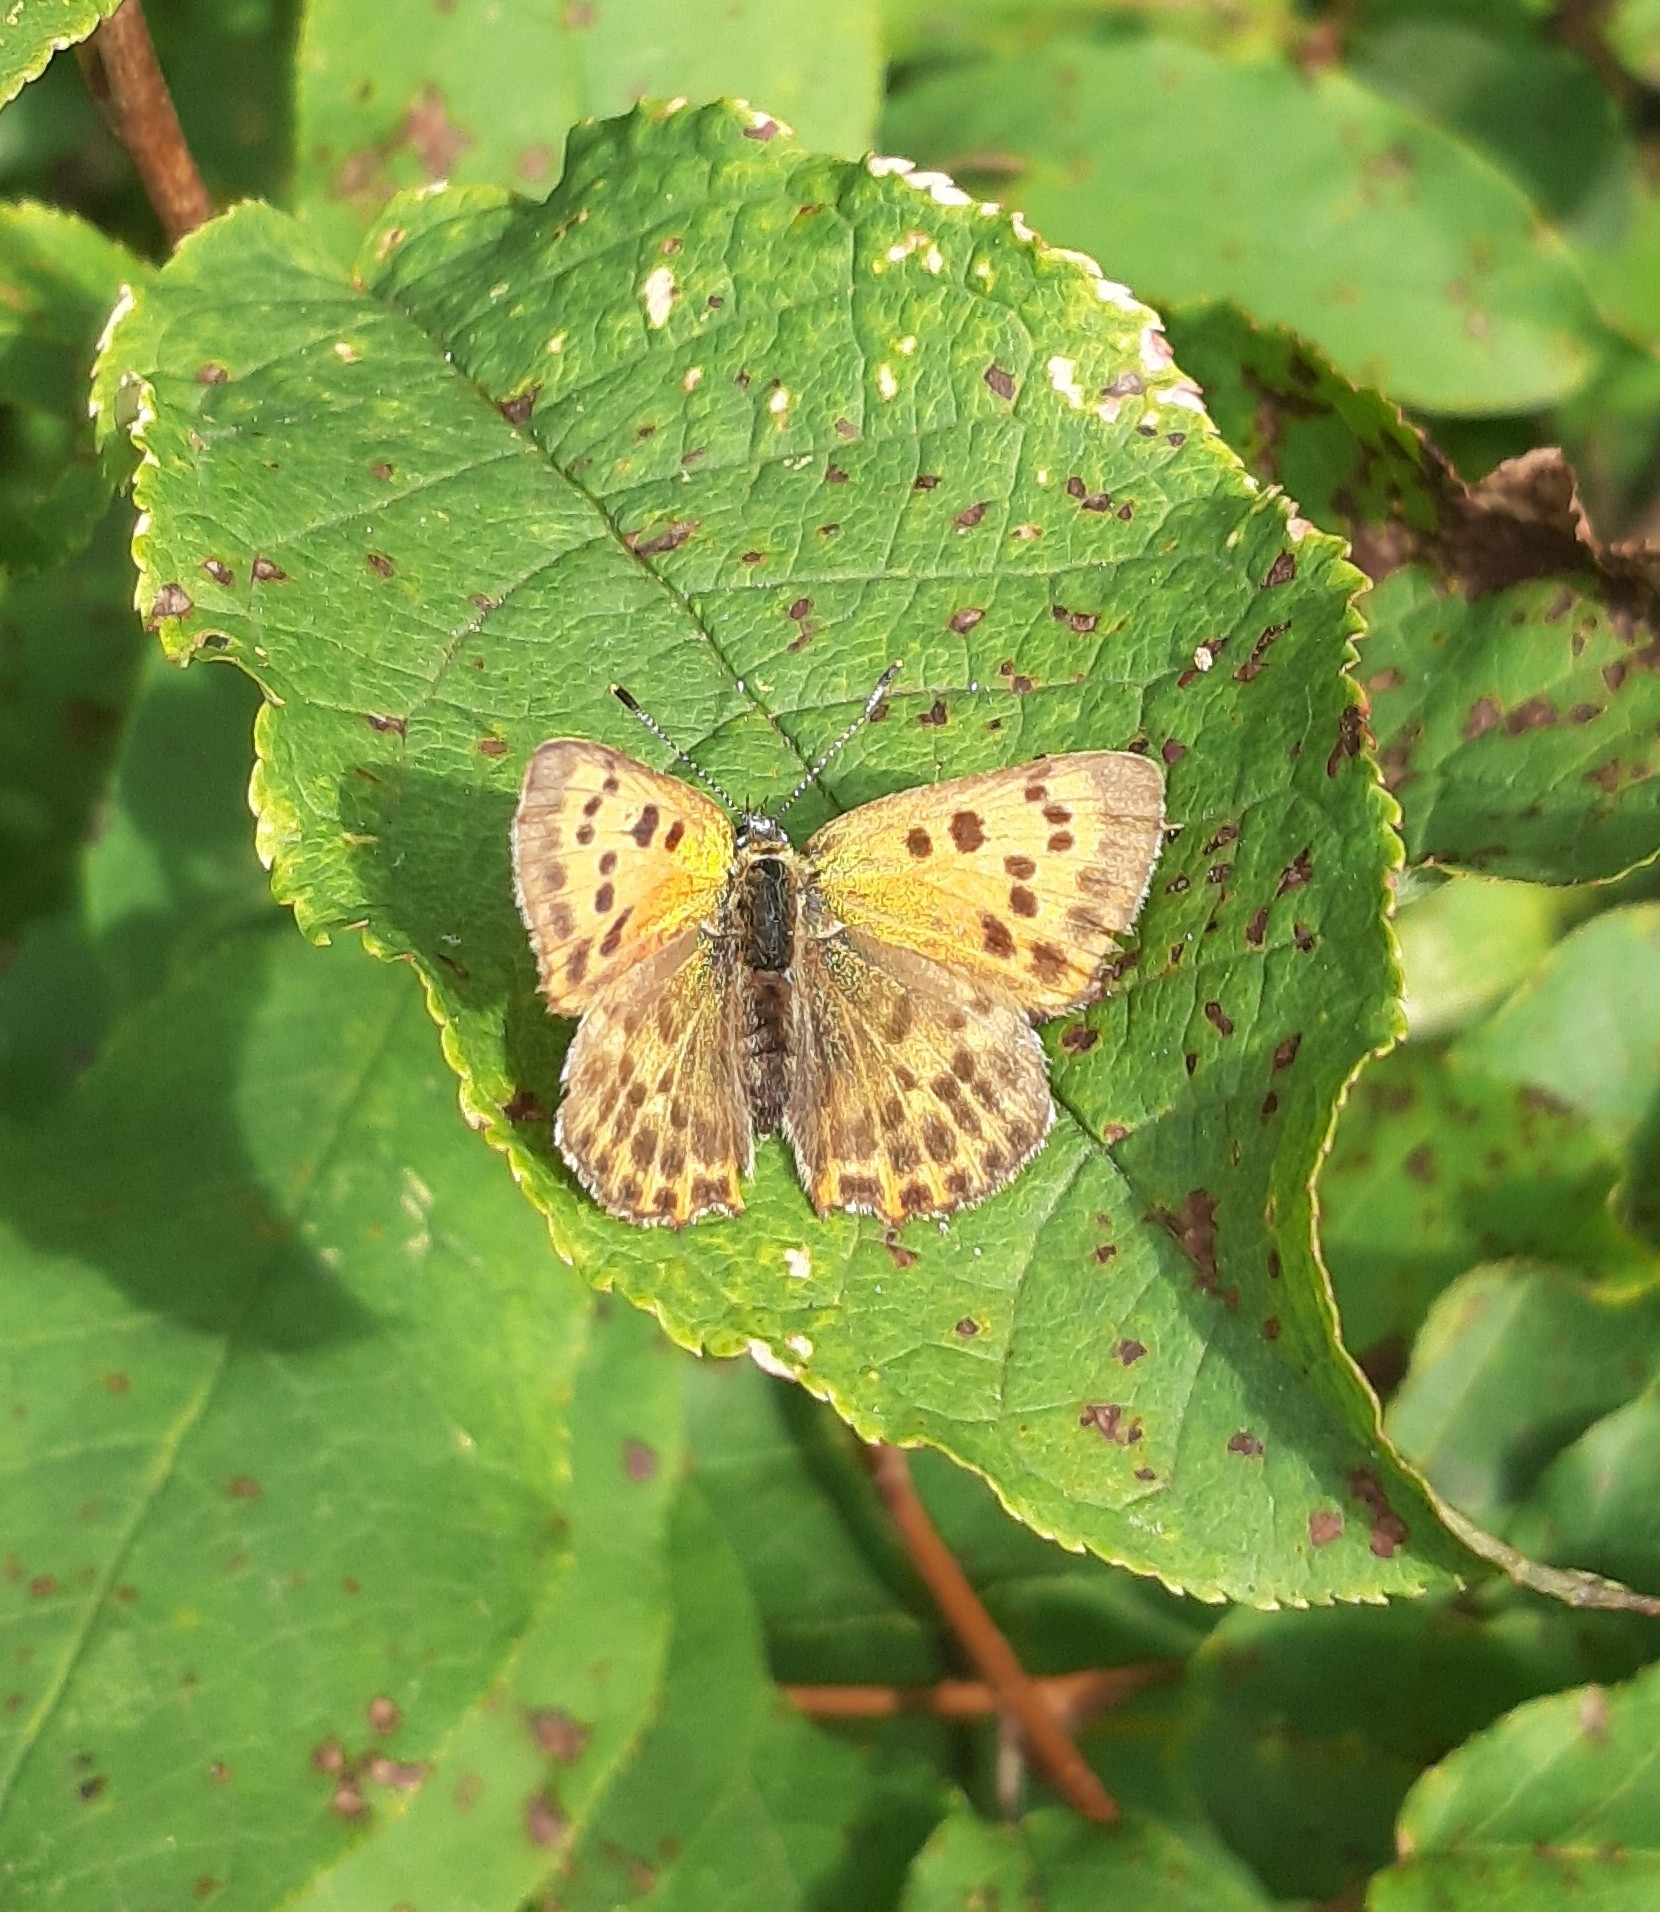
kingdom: Animalia
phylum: Arthropoda
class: Insecta
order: Lepidoptera
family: Lycaenidae
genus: Lycaena
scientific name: Lycaena virgaureae
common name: Scarce copper
